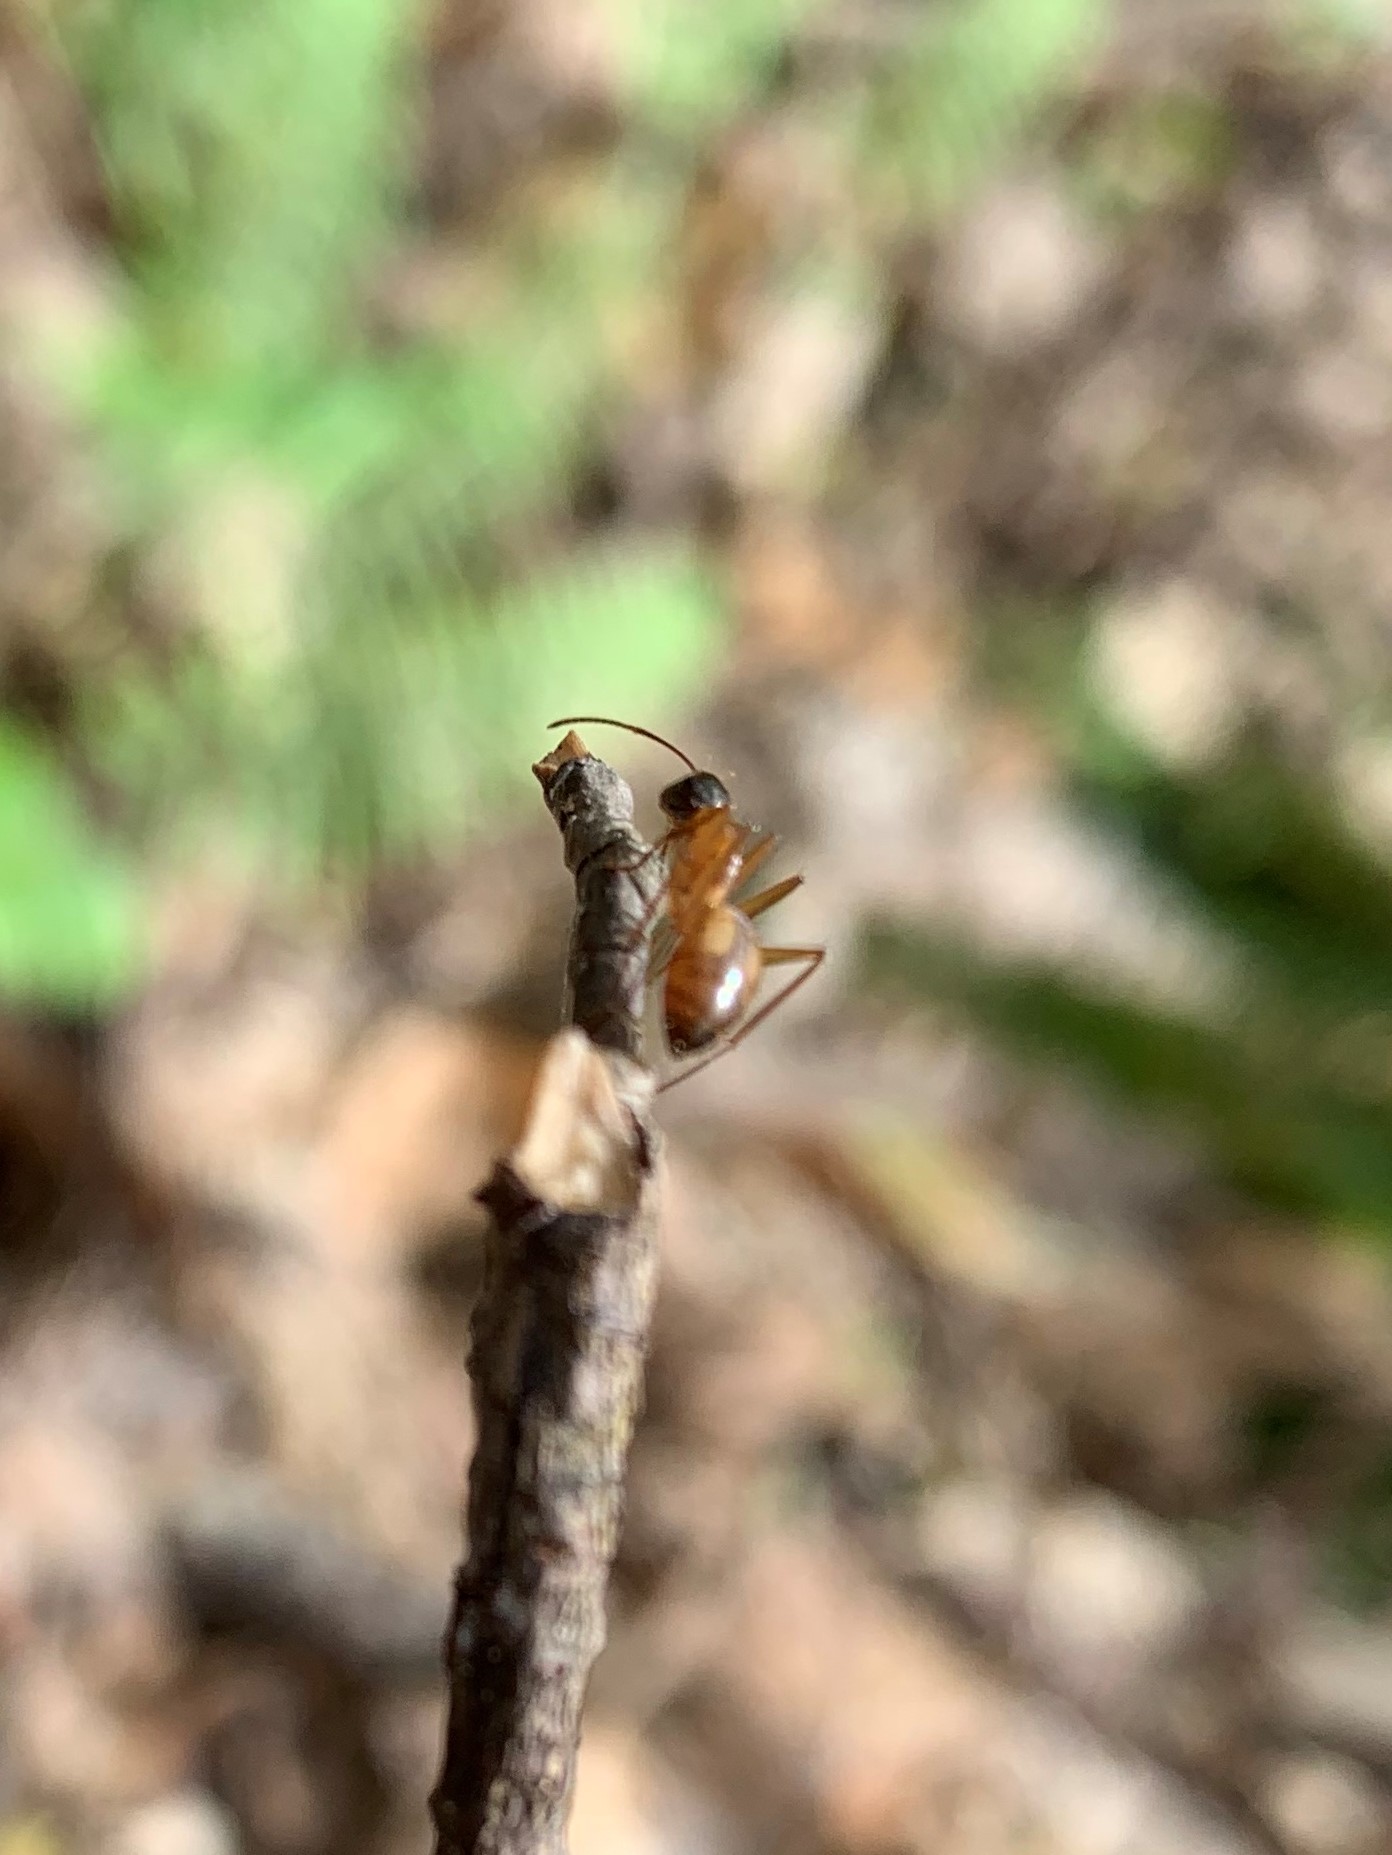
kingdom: Animalia
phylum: Arthropoda
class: Insecta
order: Hymenoptera
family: Formicidae
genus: Camponotus
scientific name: Camponotus americanus
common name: American carpenter ant
